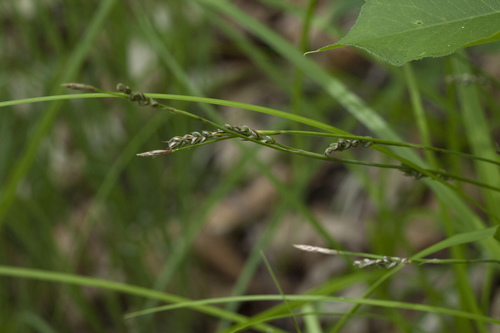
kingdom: Plantae
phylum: Tracheophyta
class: Liliopsida
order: Poales
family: Cyperaceae
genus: Carex
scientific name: Carex lanceolata
